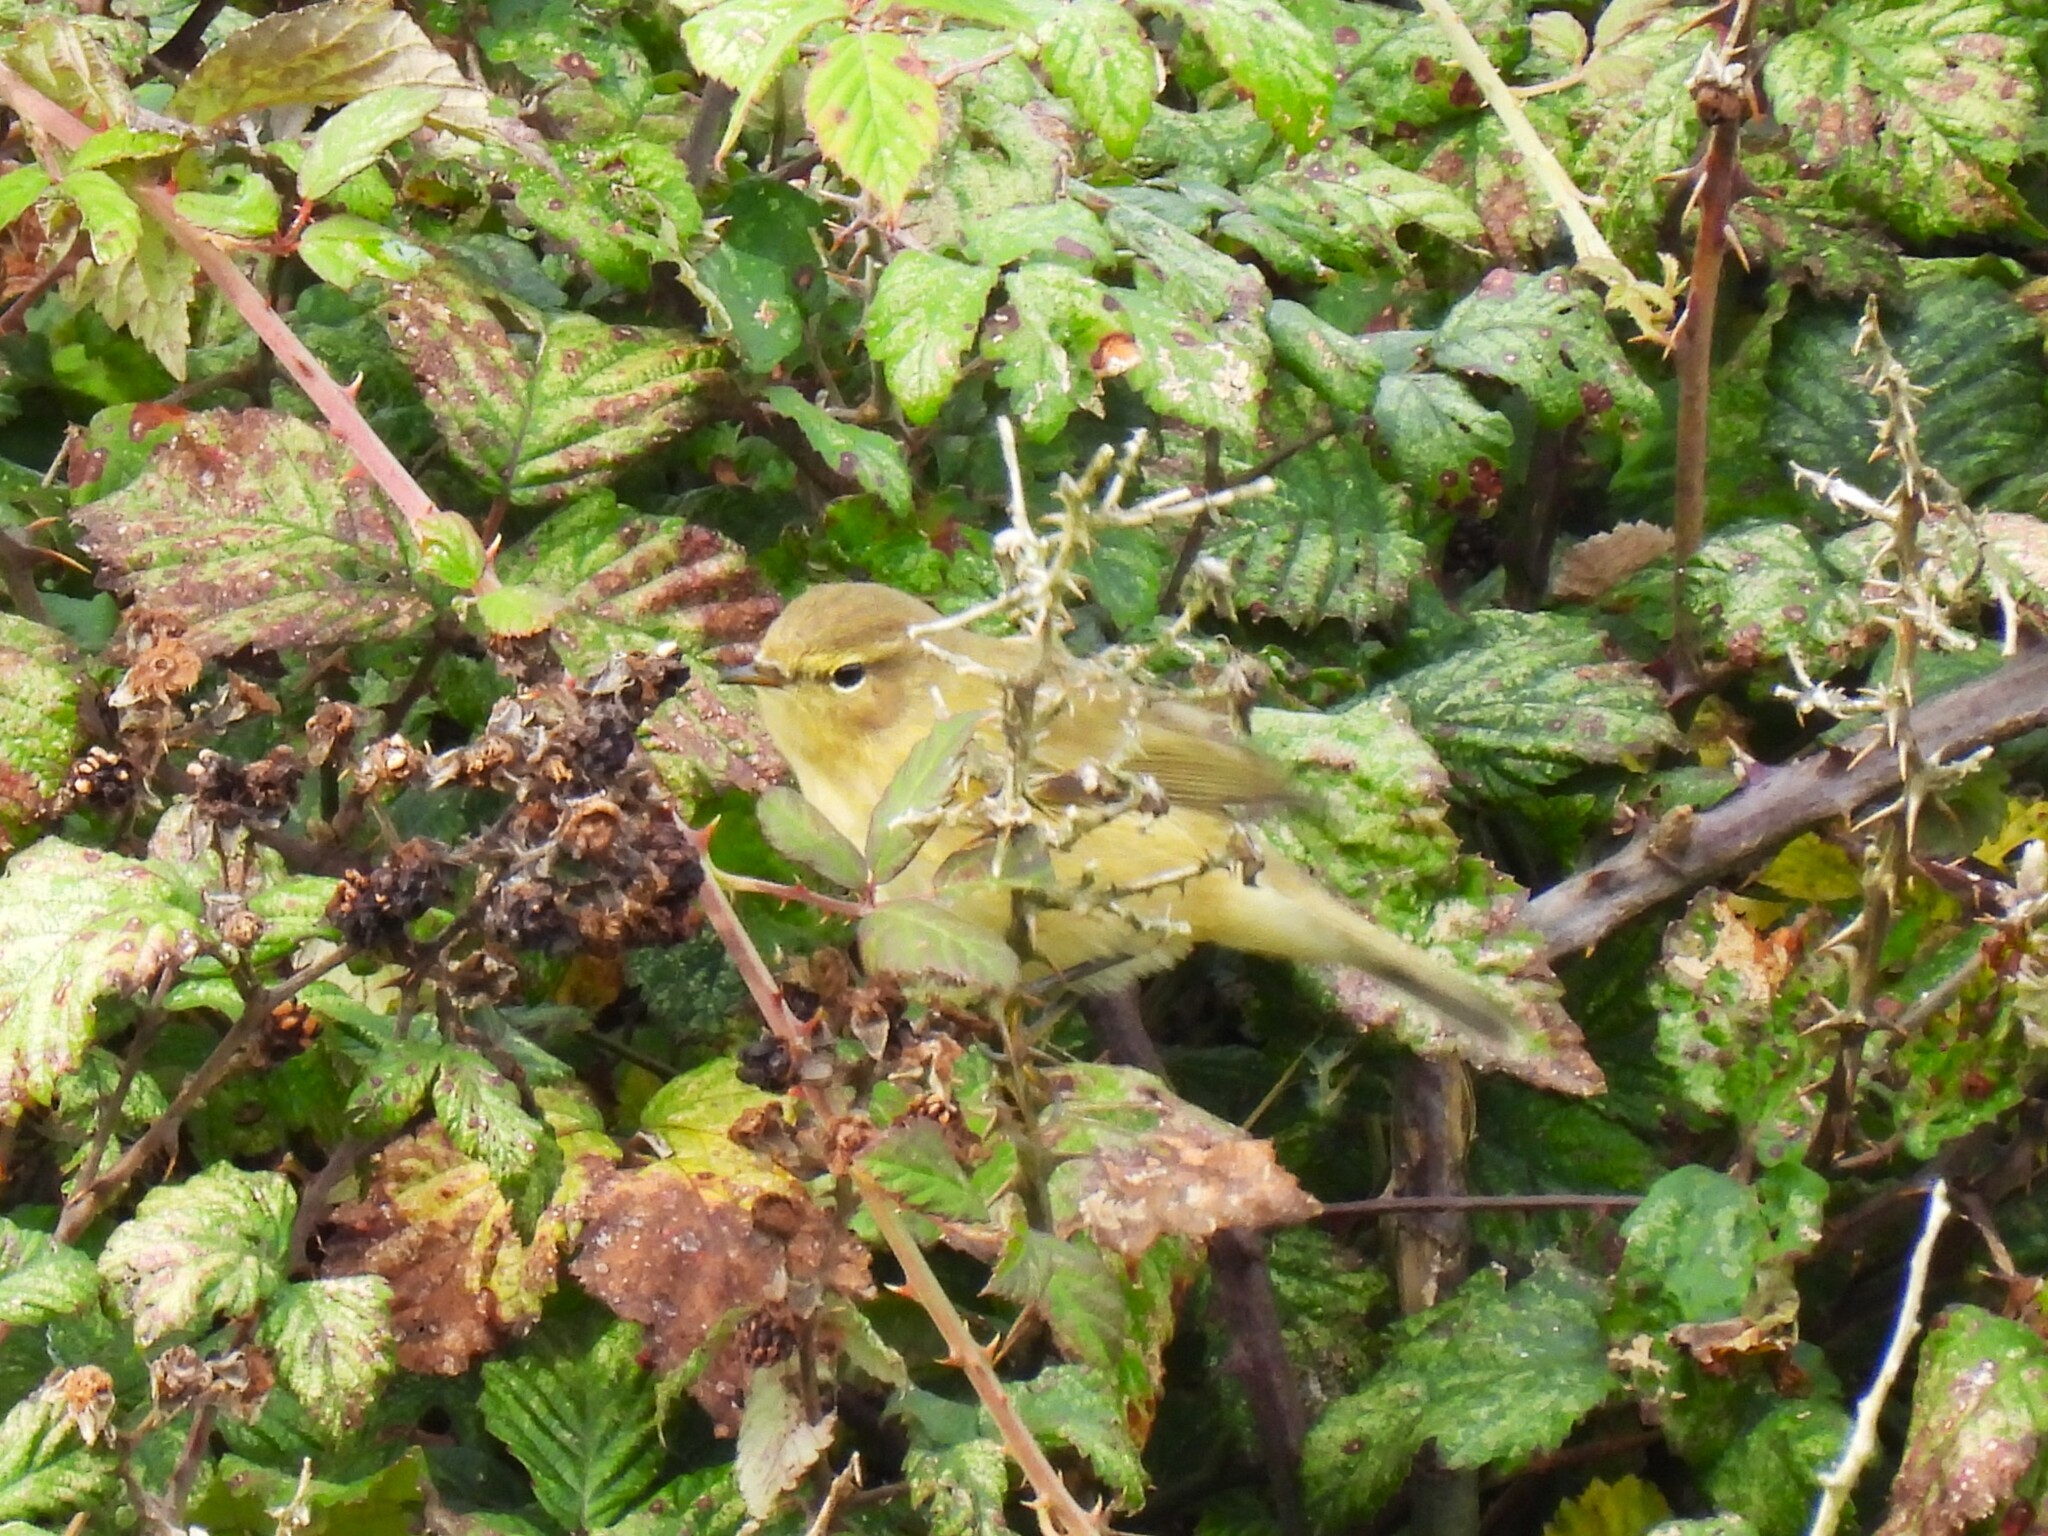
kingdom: Animalia
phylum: Chordata
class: Aves
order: Passeriformes
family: Phylloscopidae
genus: Phylloscopus
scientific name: Phylloscopus collybita
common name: Common chiffchaff
